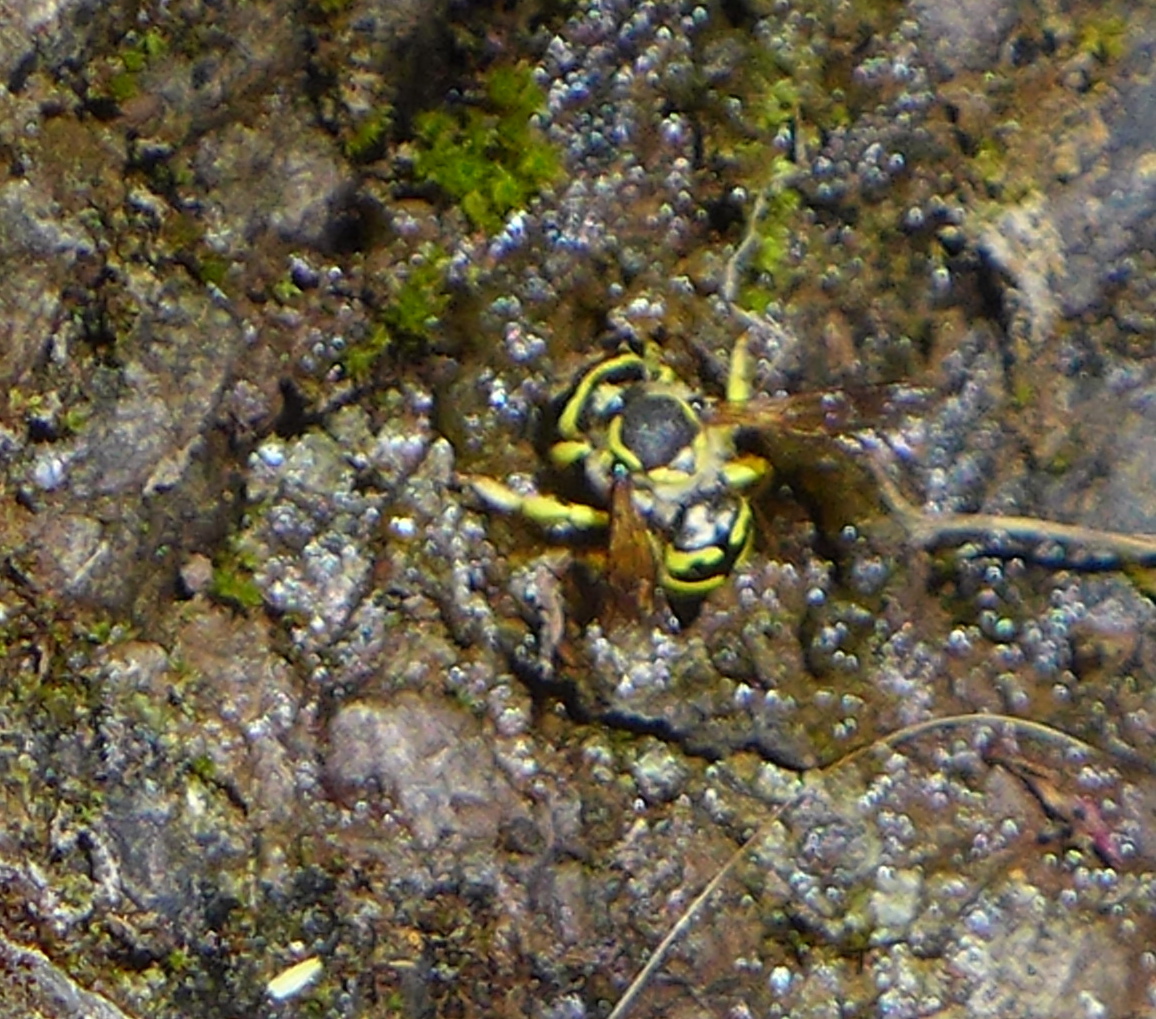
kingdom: Animalia
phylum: Arthropoda
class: Insecta
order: Diptera
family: Syrphidae
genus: Spilomyia
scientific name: Spilomyia interrupta
